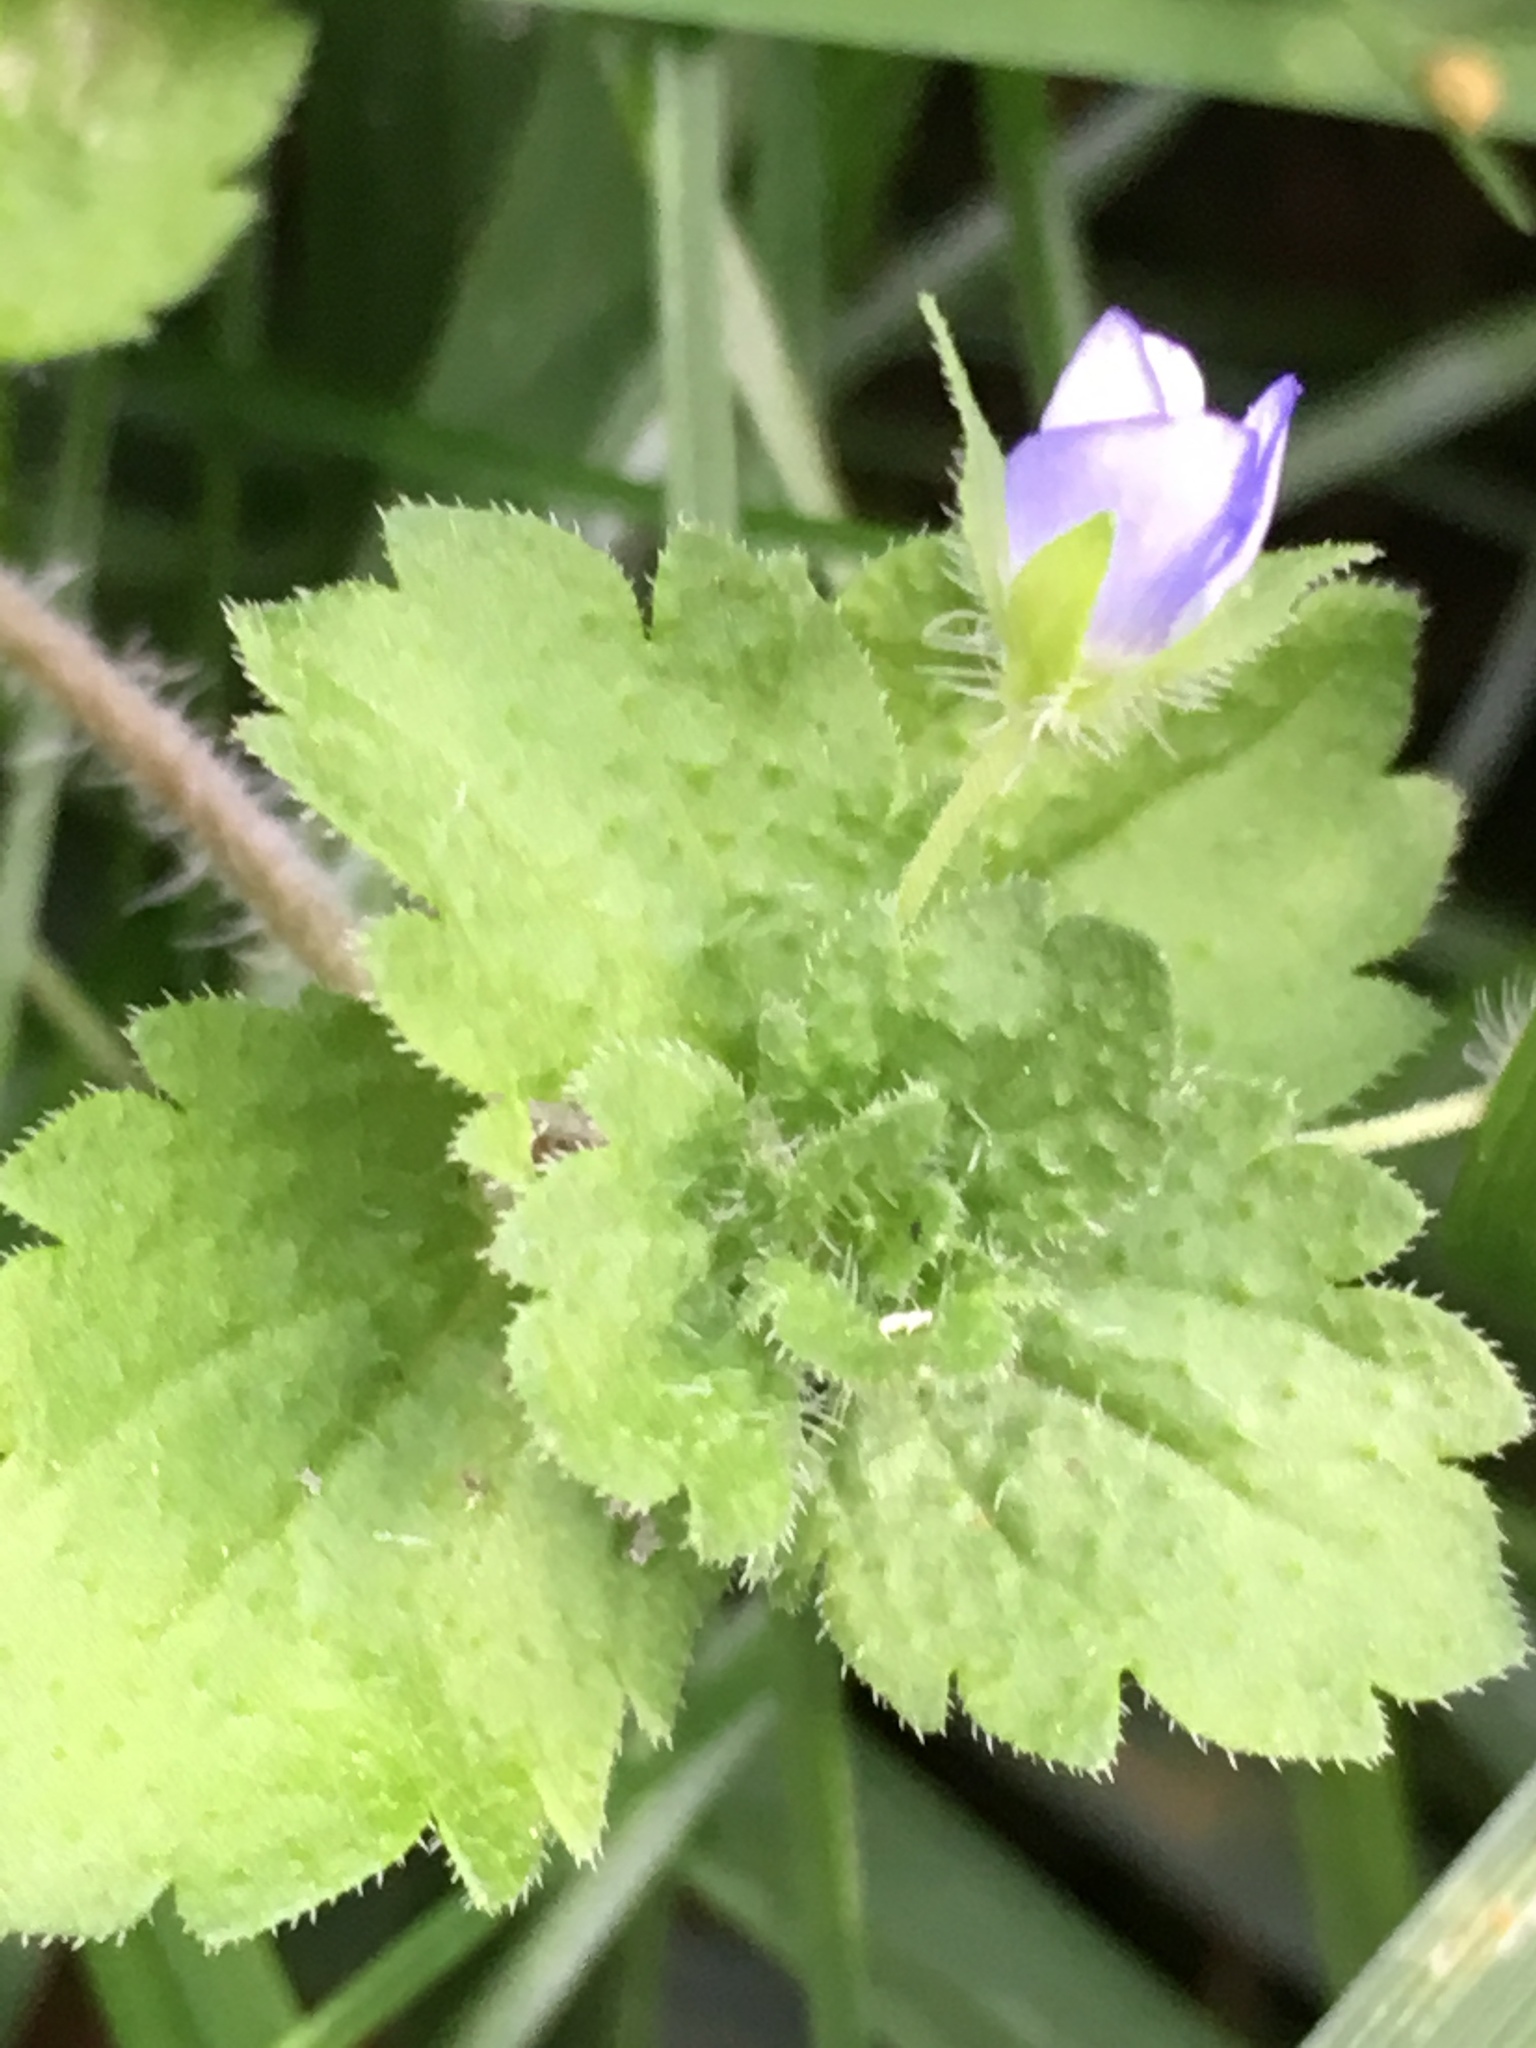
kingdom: Plantae
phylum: Tracheophyta
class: Magnoliopsida
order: Lamiales
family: Plantaginaceae
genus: Veronica
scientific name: Veronica persica
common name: Common field-speedwell
